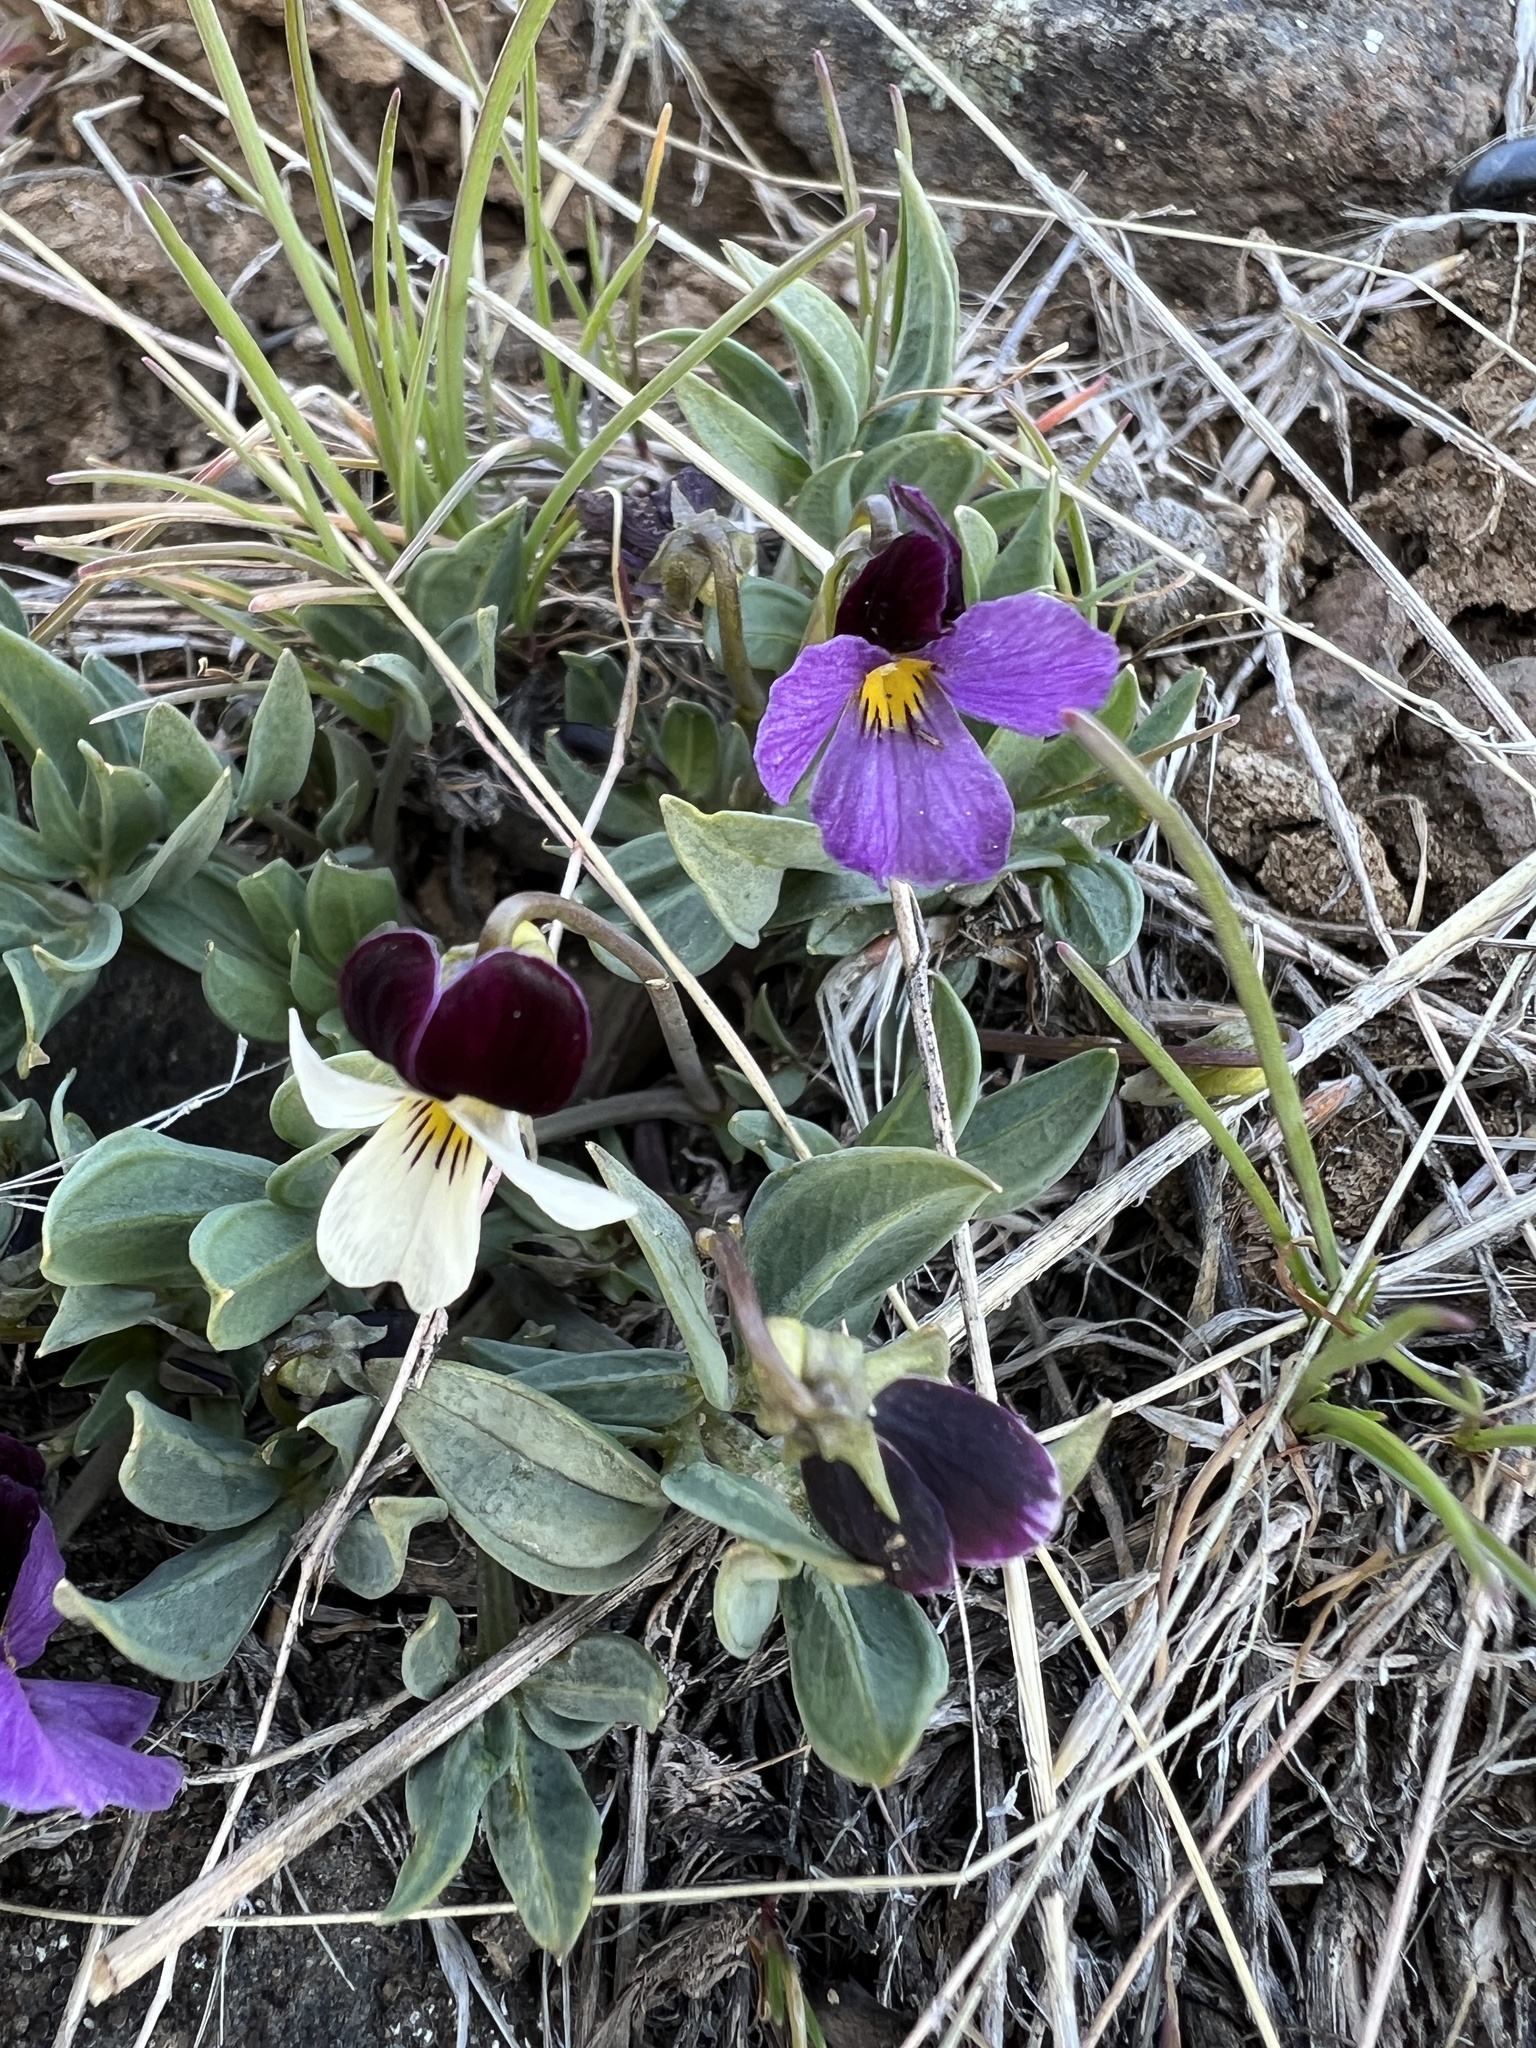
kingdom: Plantae
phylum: Tracheophyta
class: Magnoliopsida
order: Malpighiales
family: Violaceae
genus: Viola
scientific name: Viola trinervata
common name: Sagebrush violet
